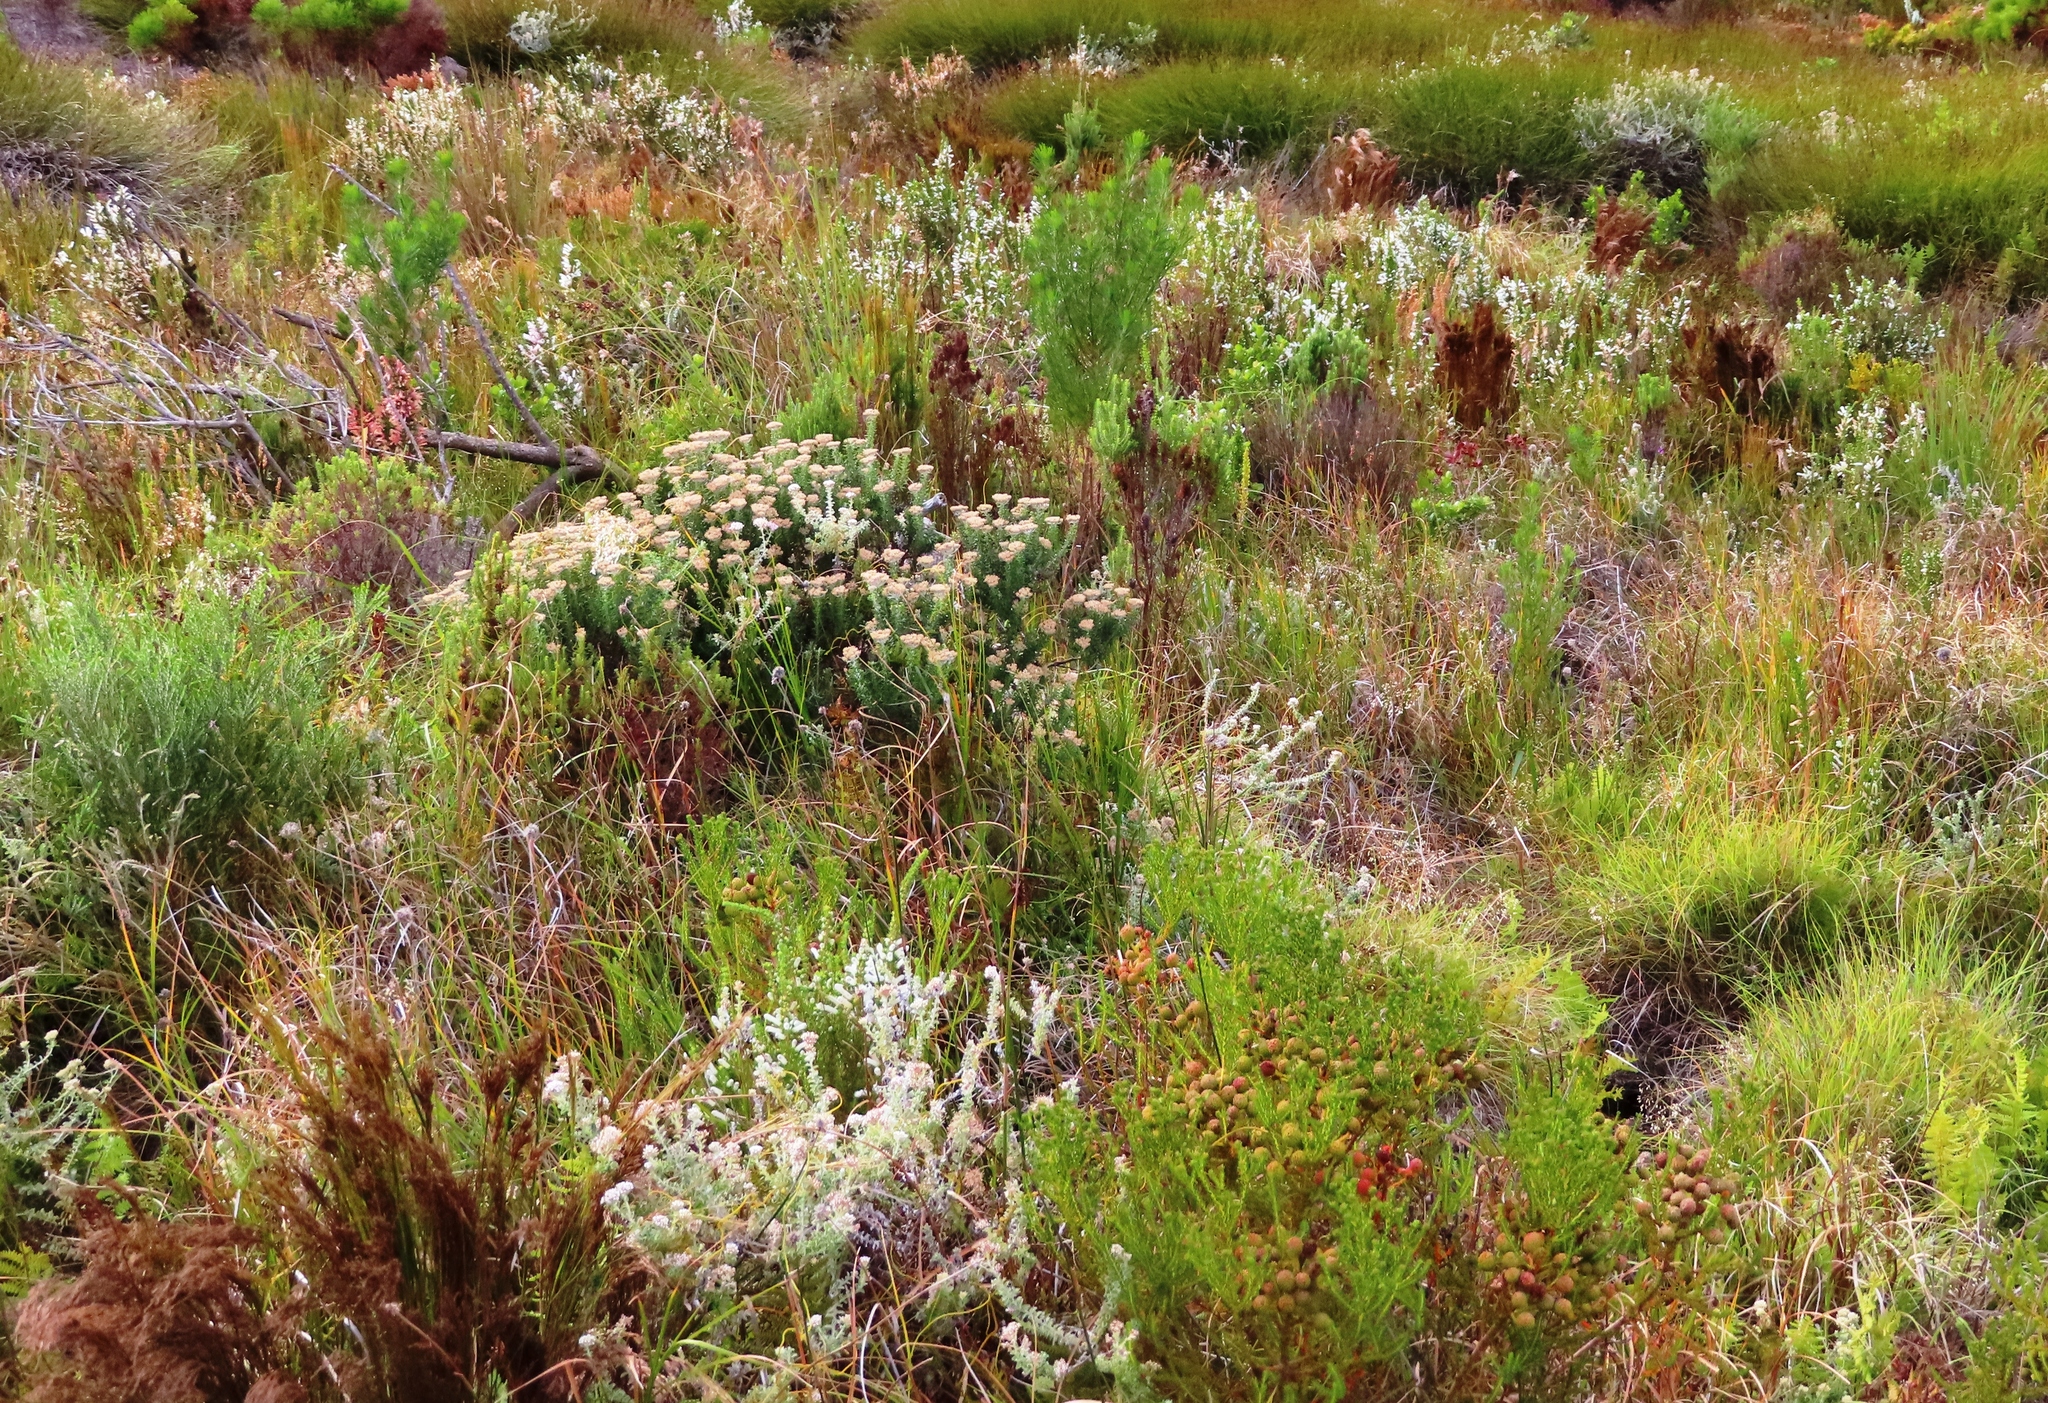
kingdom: Plantae
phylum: Tracheophyta
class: Magnoliopsida
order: Ericales
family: Ericaceae
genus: Erica
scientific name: Erica perspicua
